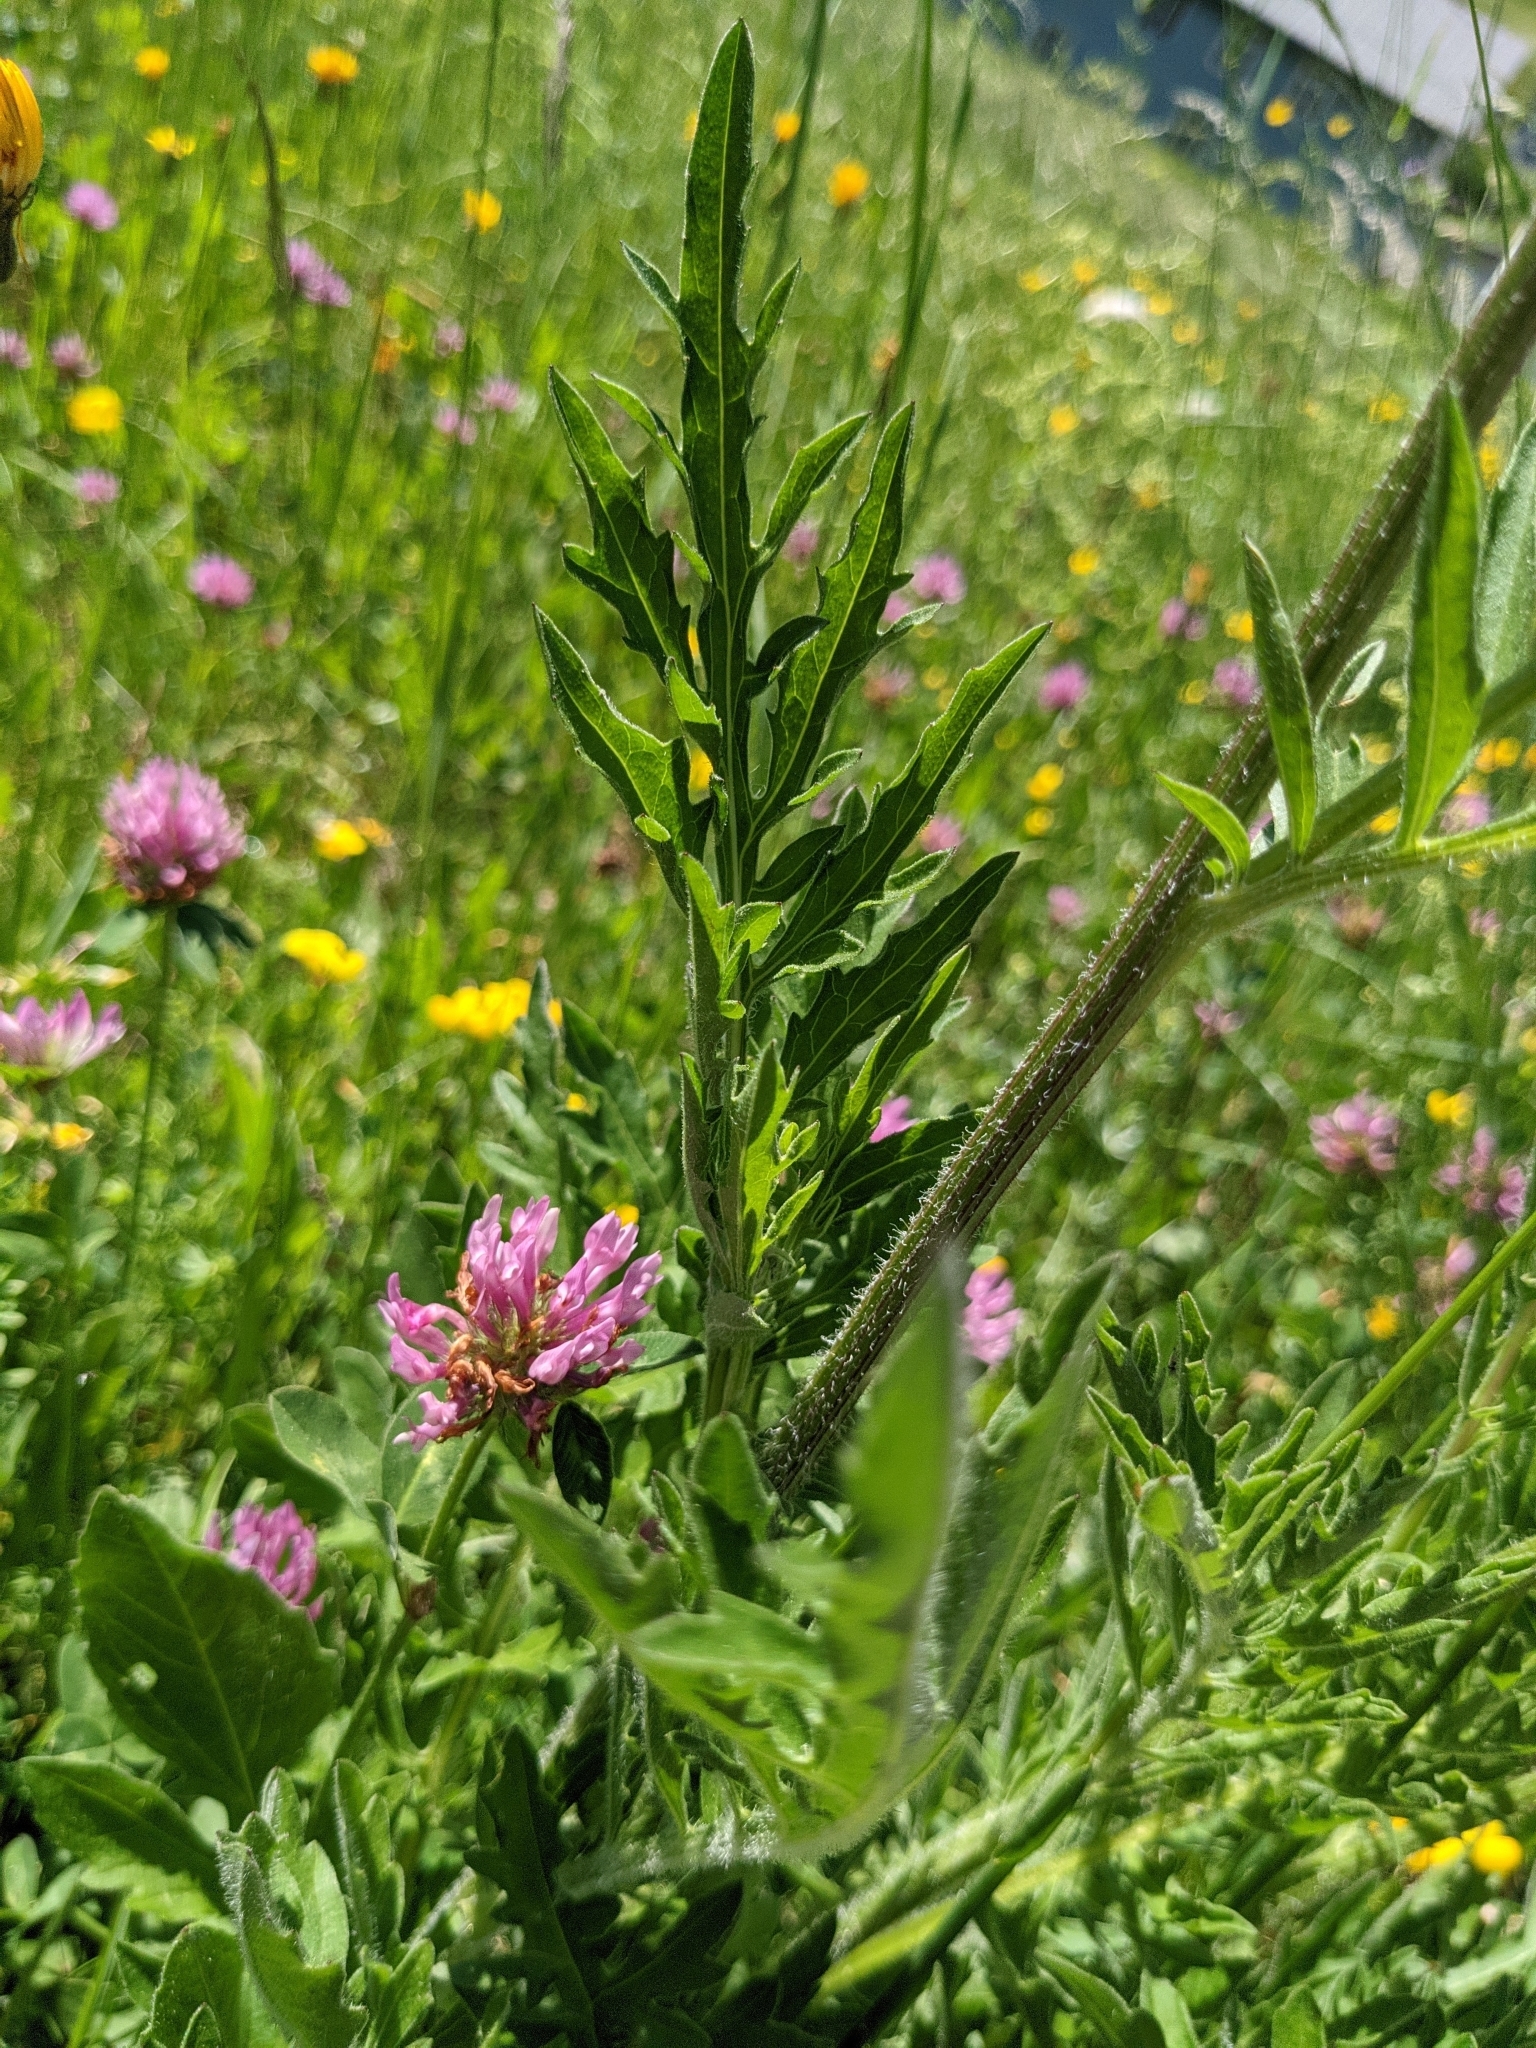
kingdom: Plantae
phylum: Tracheophyta
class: Magnoliopsida
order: Asterales
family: Asteraceae
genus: Centaurea
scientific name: Centaurea scabiosa
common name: Greater knapweed
